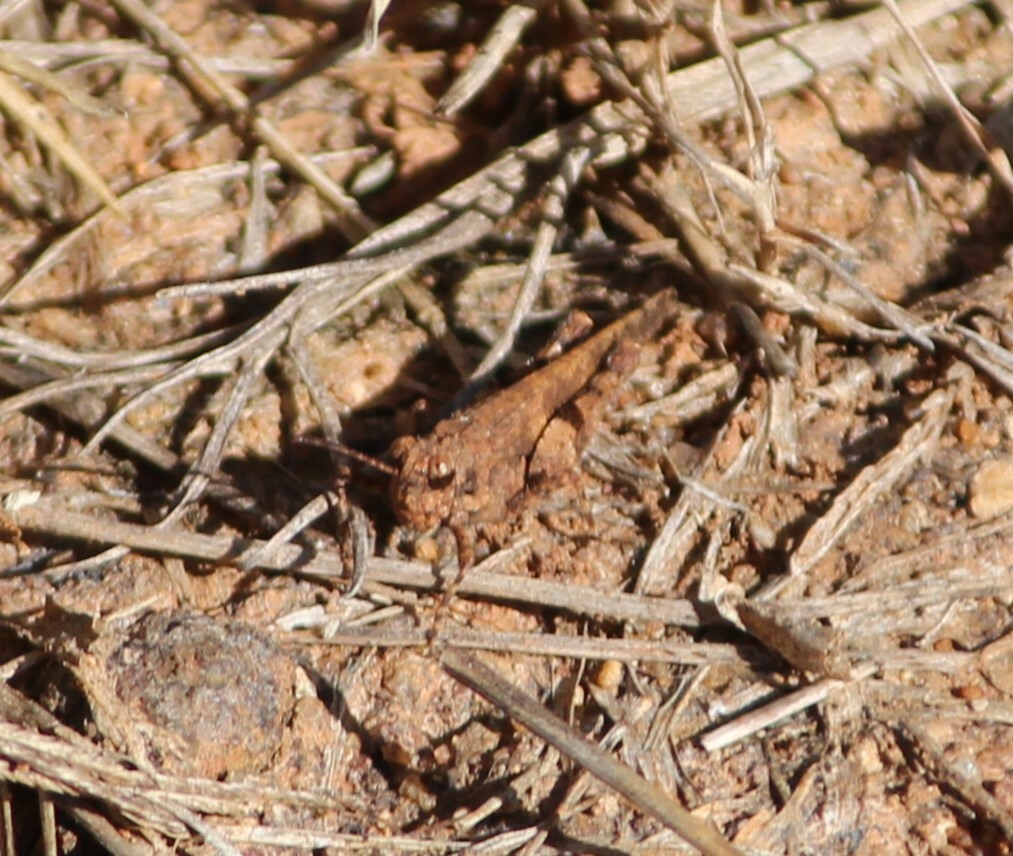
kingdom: Animalia
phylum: Arthropoda
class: Insecta
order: Orthoptera
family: Acrididae
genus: Trilophidia
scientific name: Trilophidia annulata
